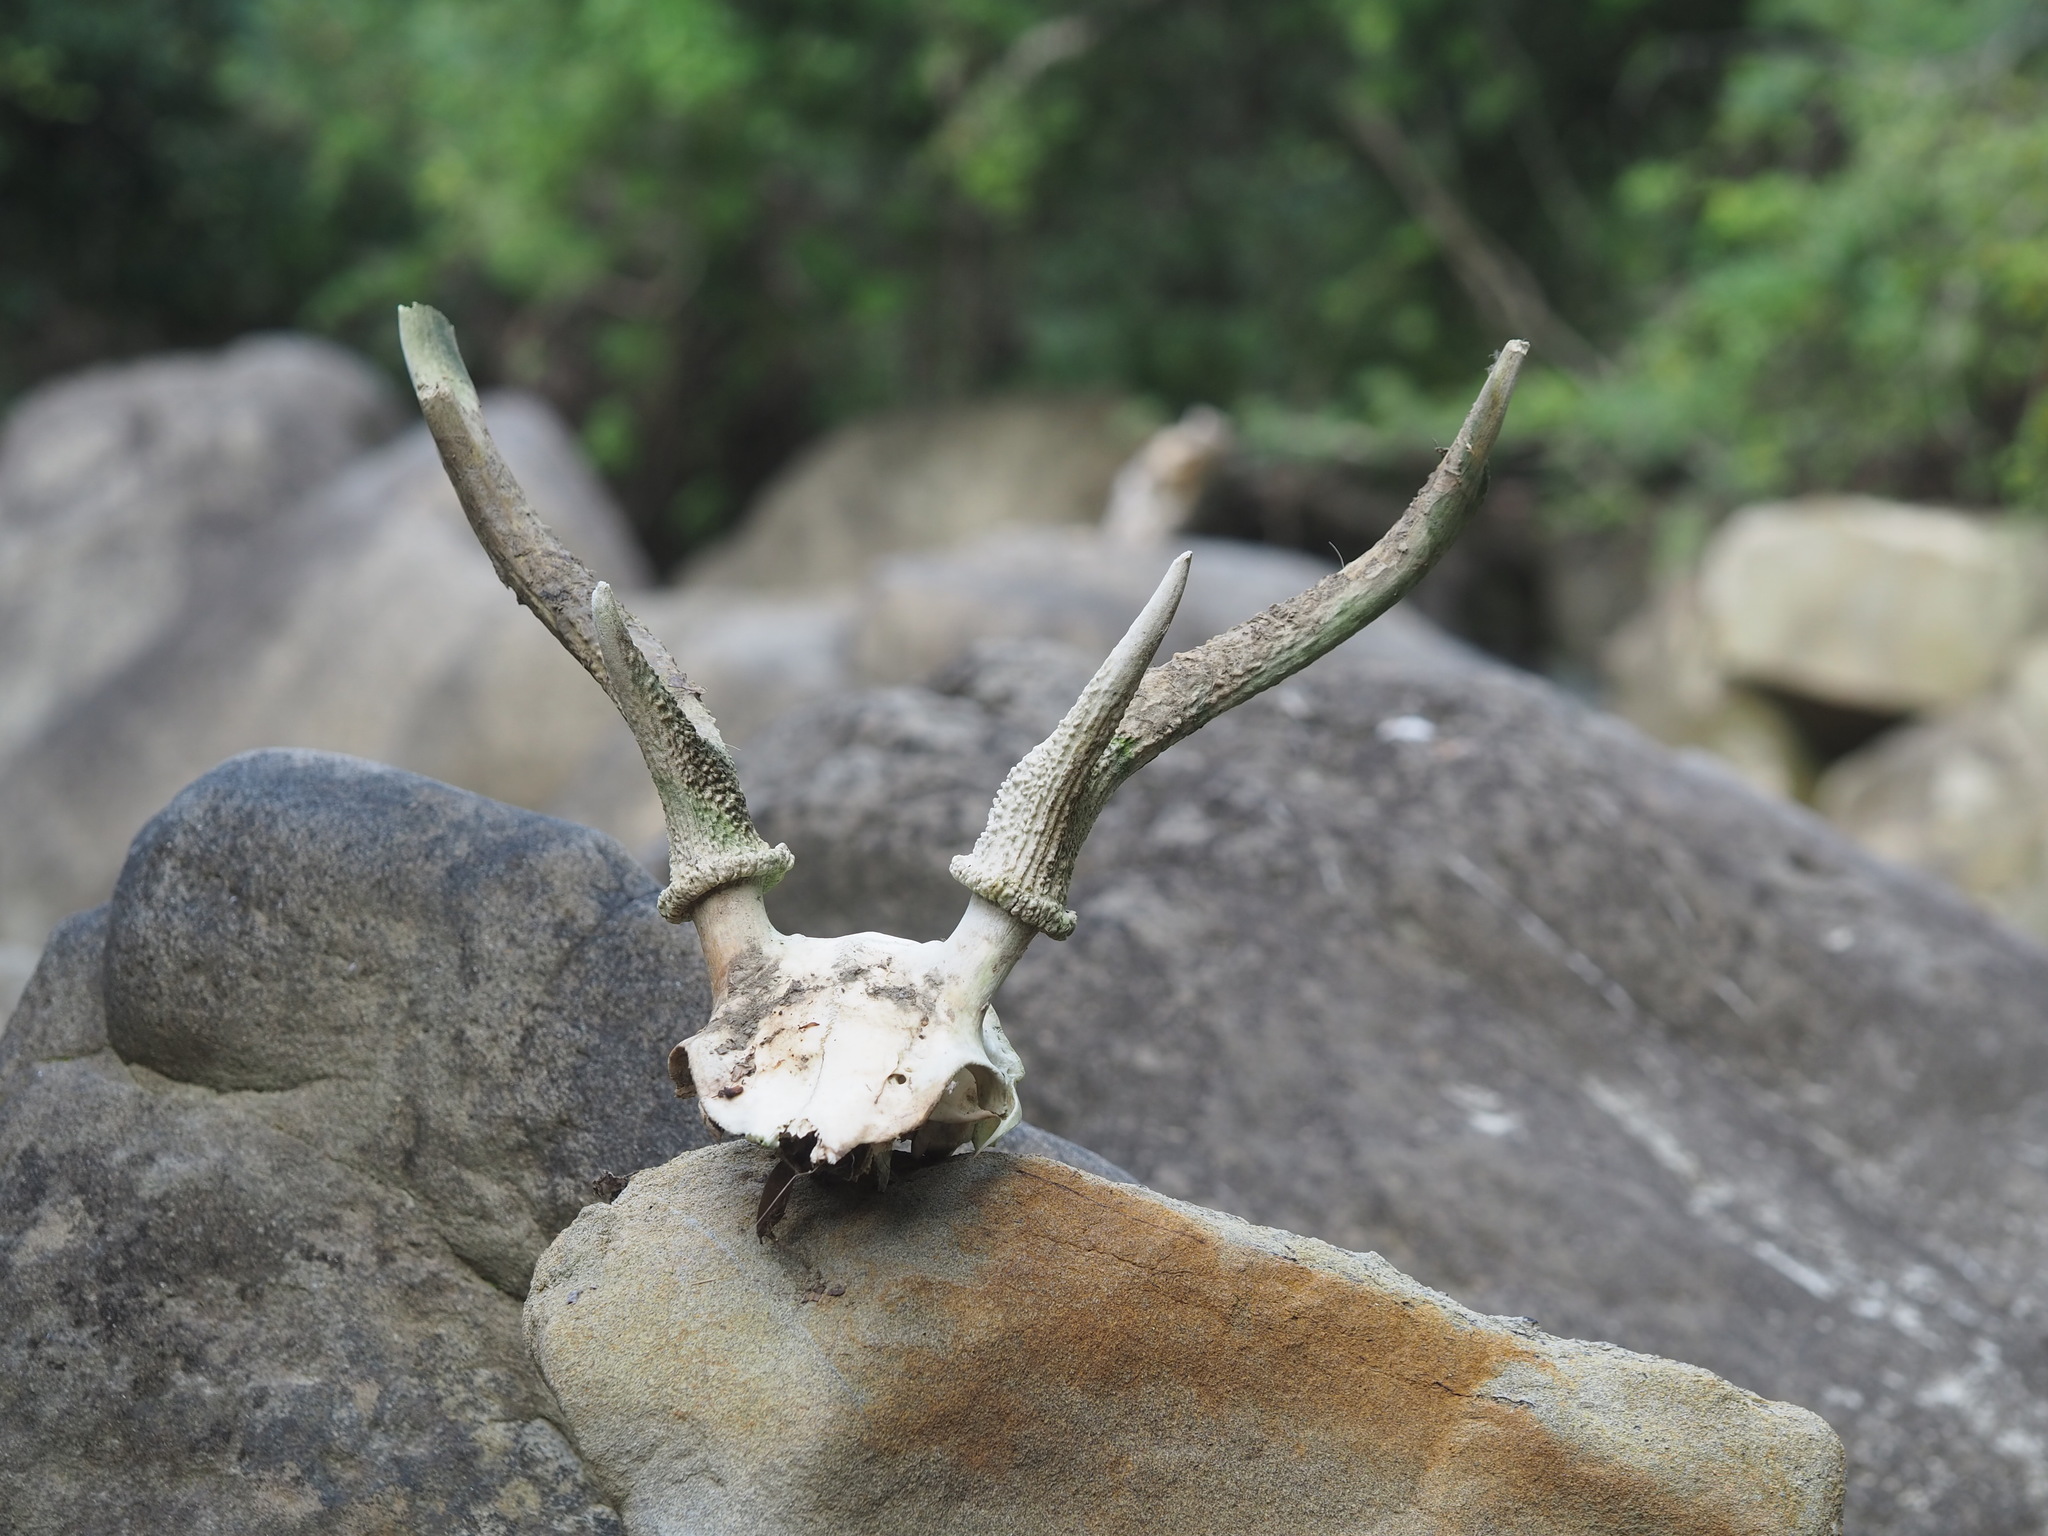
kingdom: Animalia
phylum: Chordata
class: Mammalia
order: Artiodactyla
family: Cervidae
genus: Cervus
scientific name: Cervus nippon
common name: Sika deer
